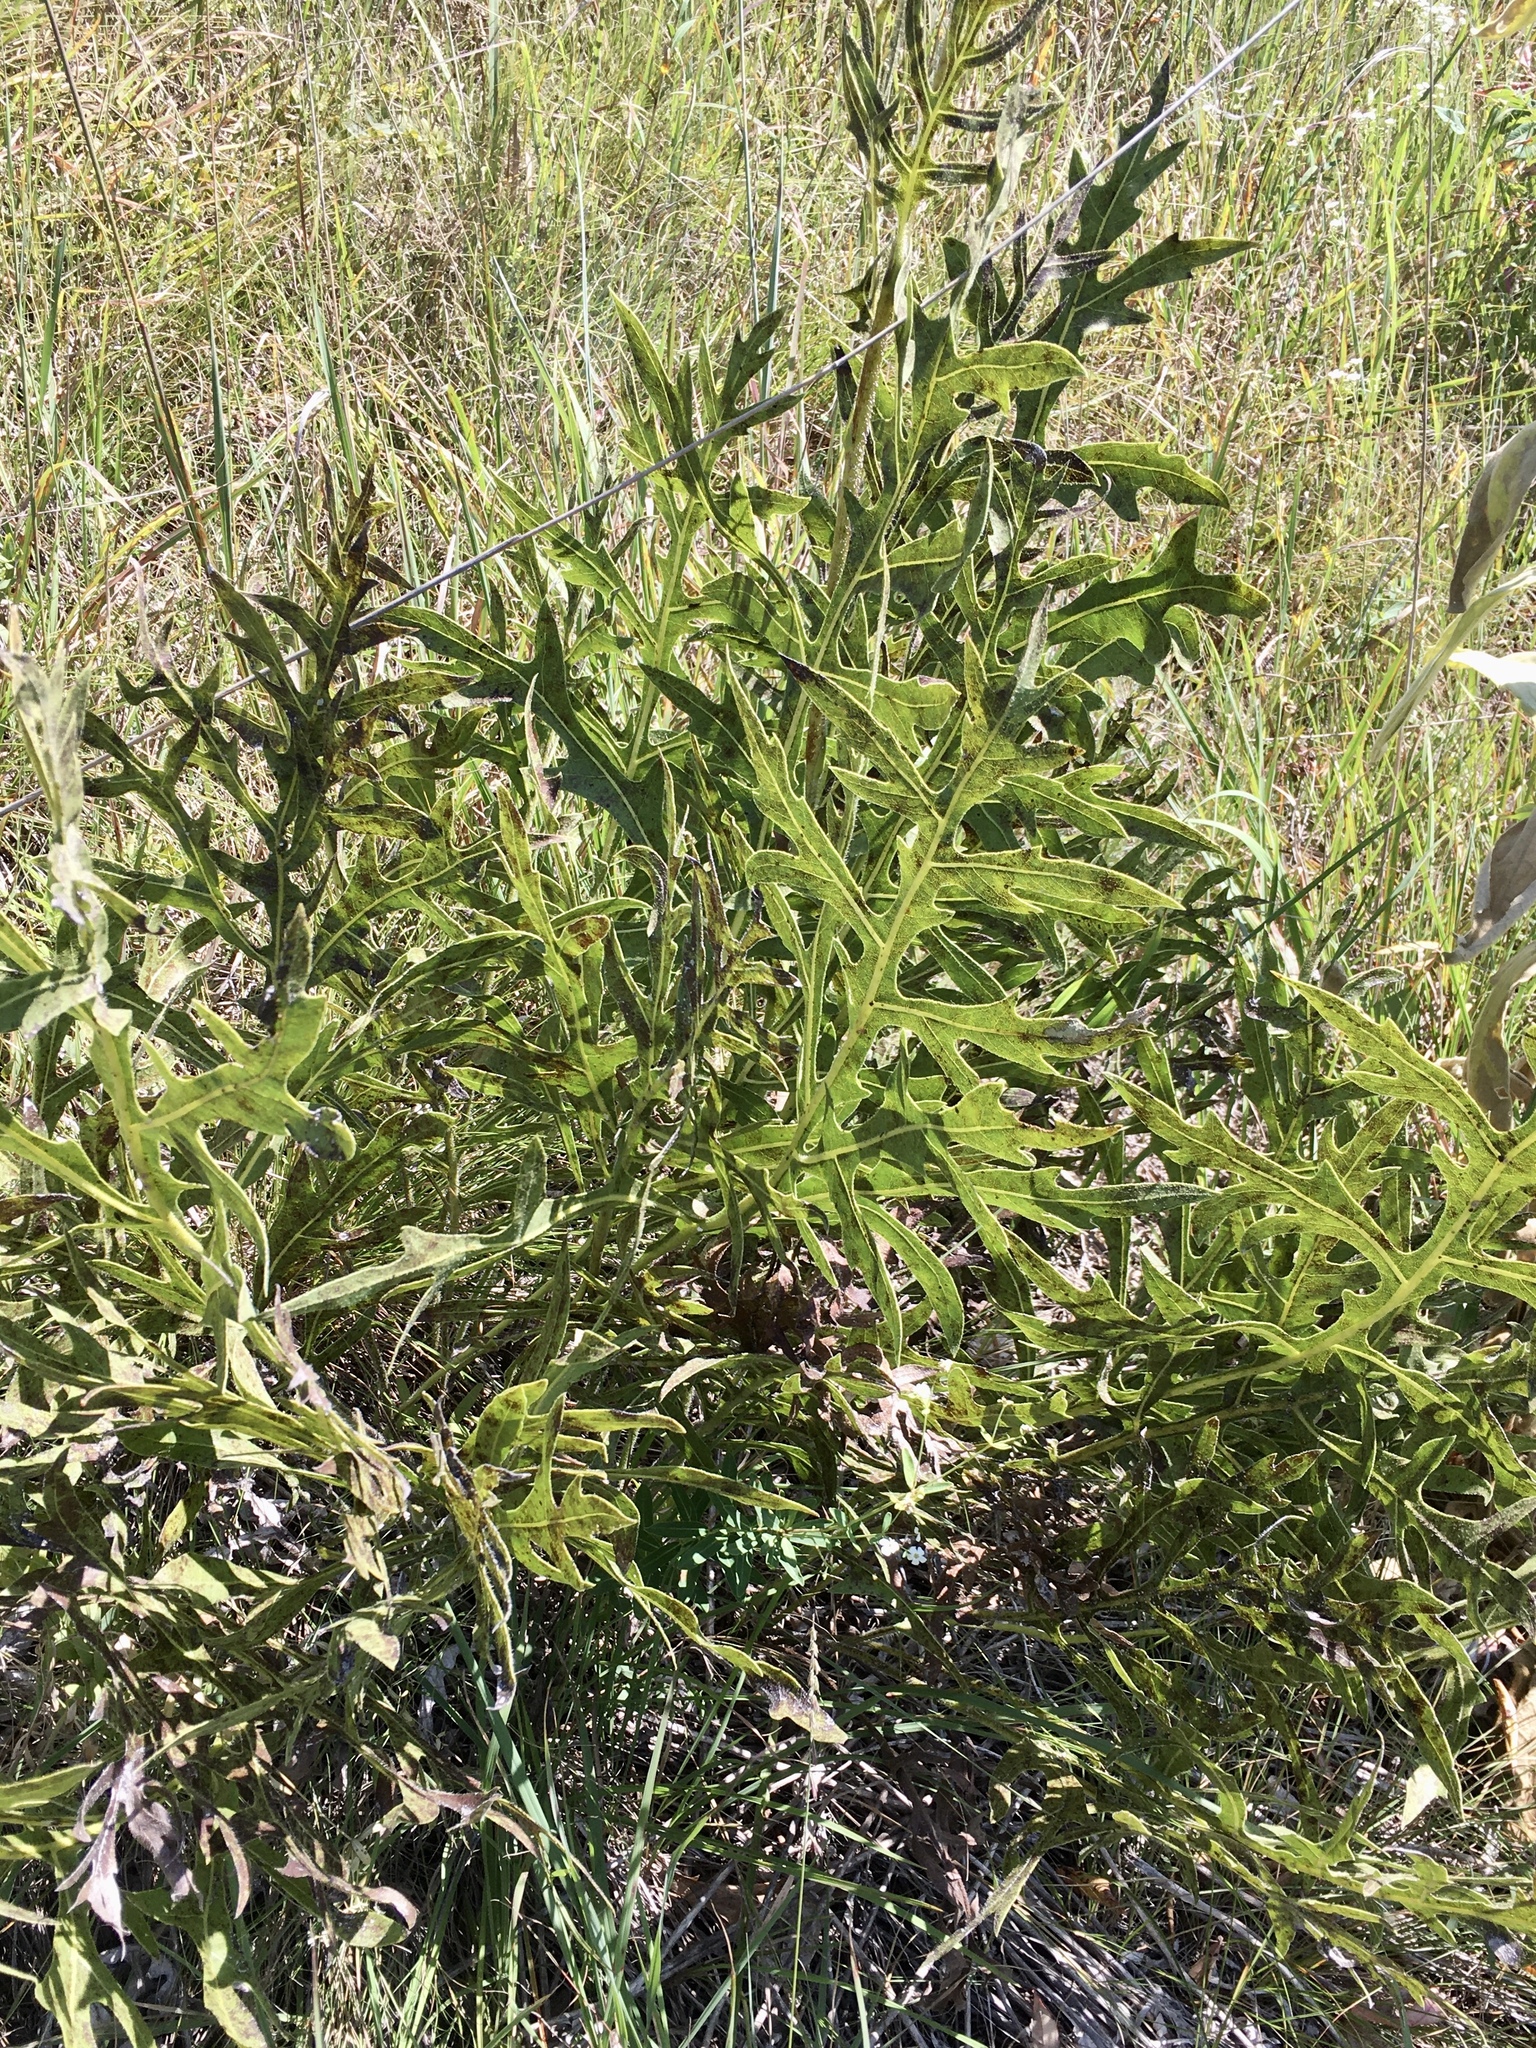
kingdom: Plantae
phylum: Tracheophyta
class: Magnoliopsida
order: Asterales
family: Asteraceae
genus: Silphium
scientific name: Silphium laciniatum
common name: Polarplant
